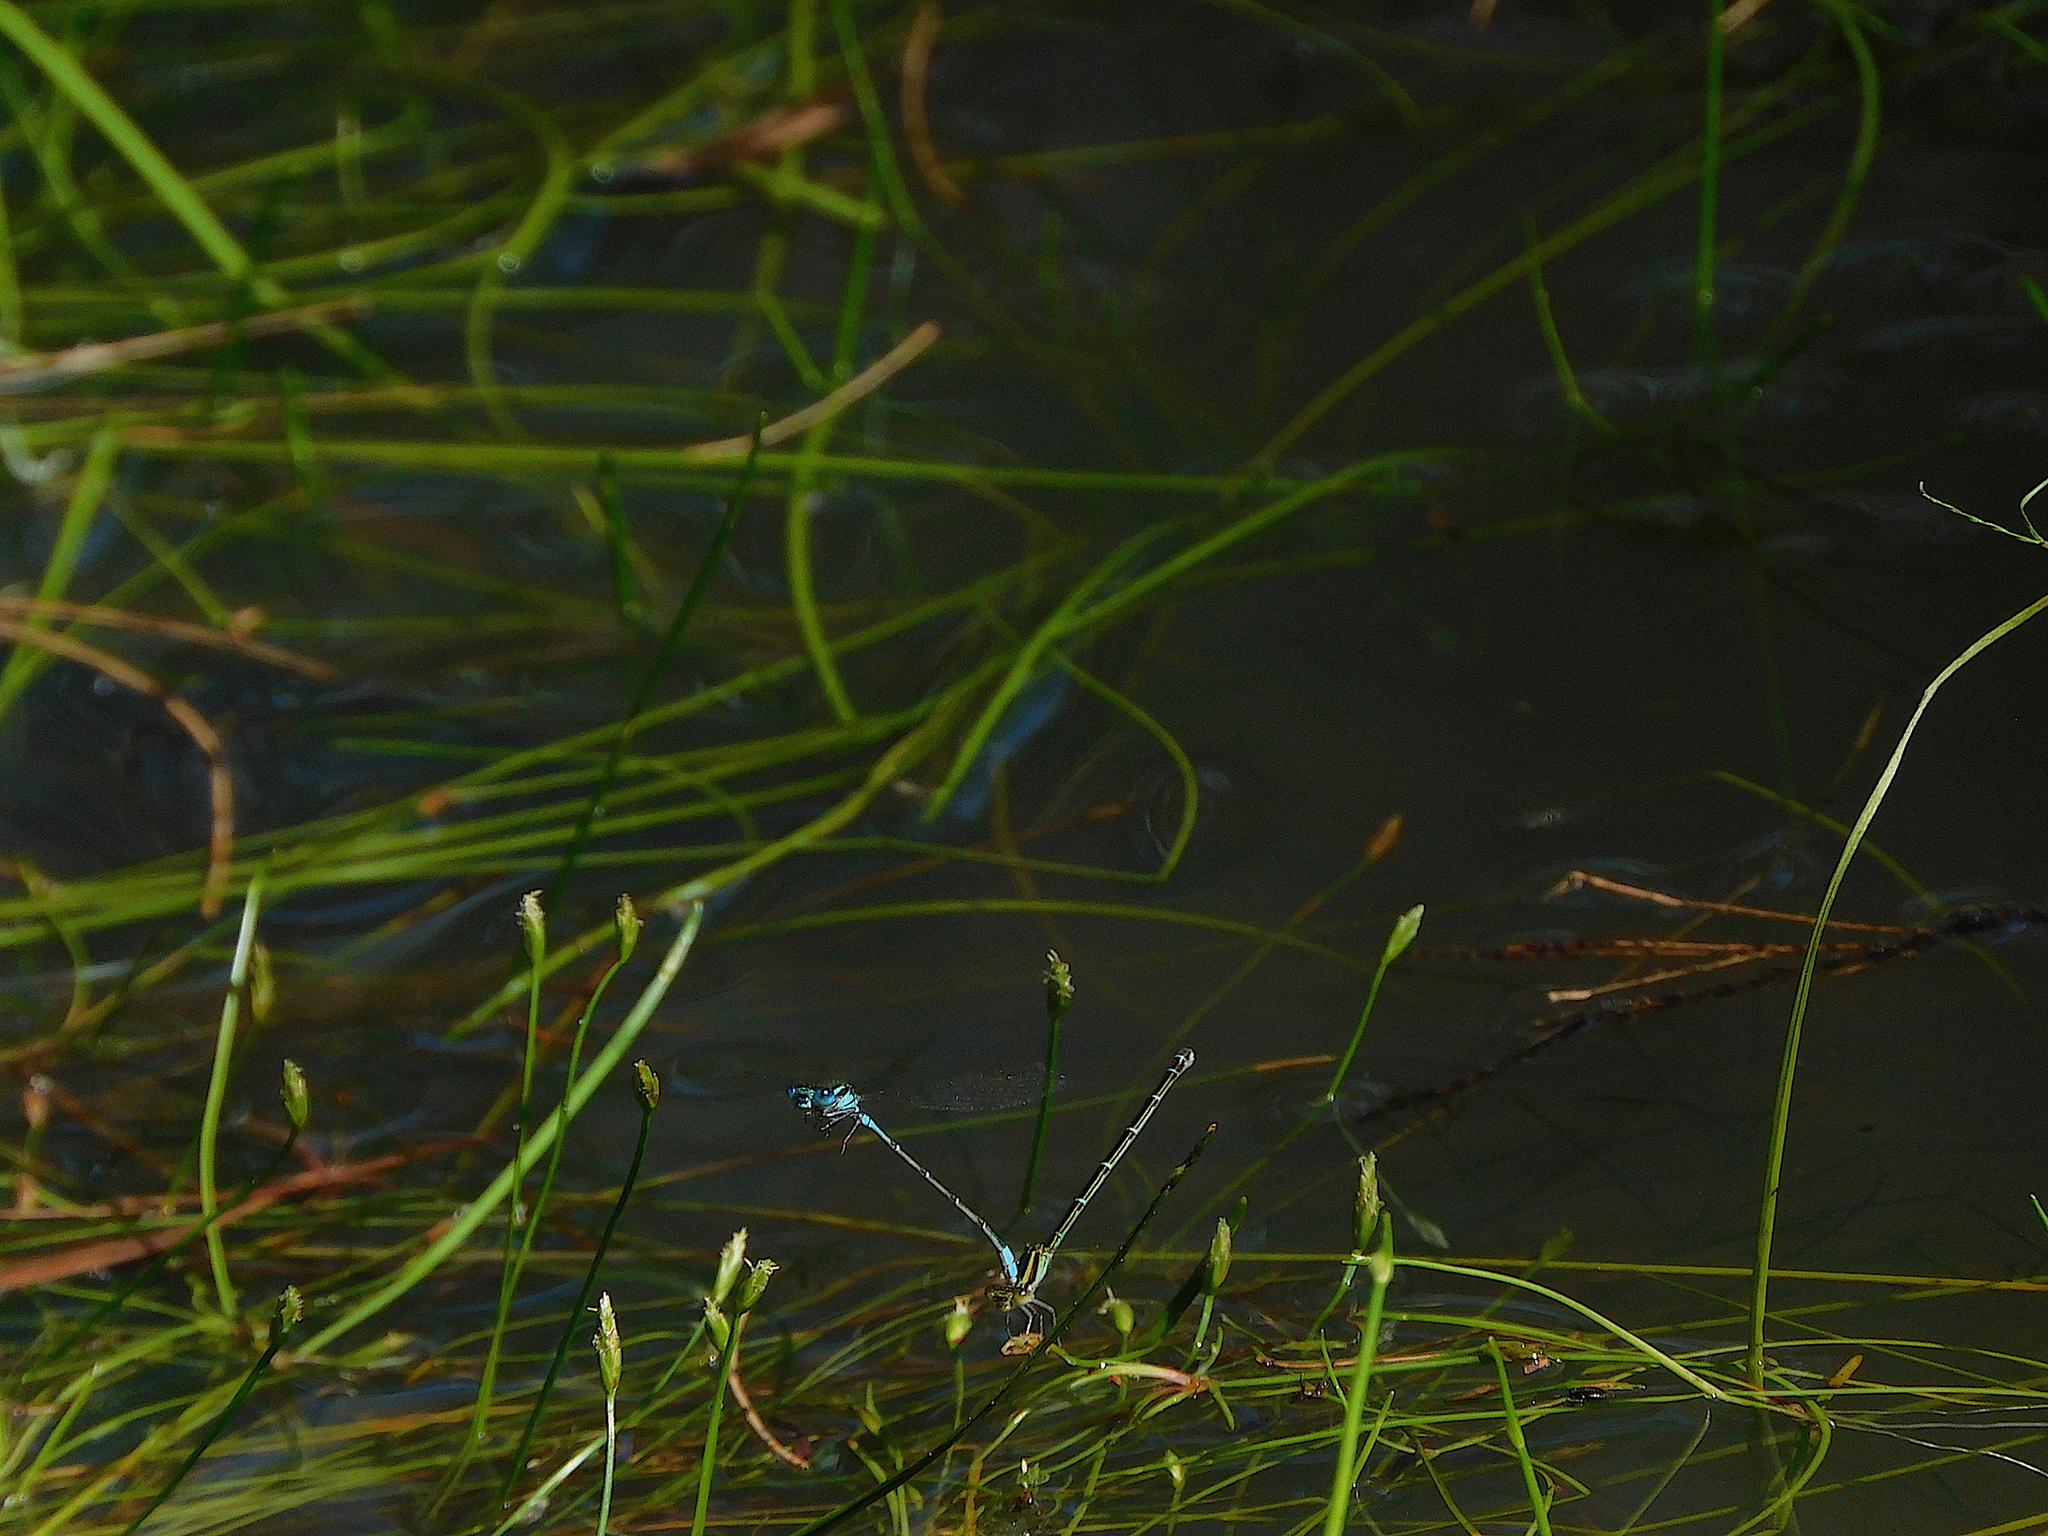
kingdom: Animalia
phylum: Arthropoda
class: Insecta
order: Odonata
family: Coenagrionidae
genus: Austroagrion
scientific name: Austroagrion watsoni
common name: Eastern billabongfly
